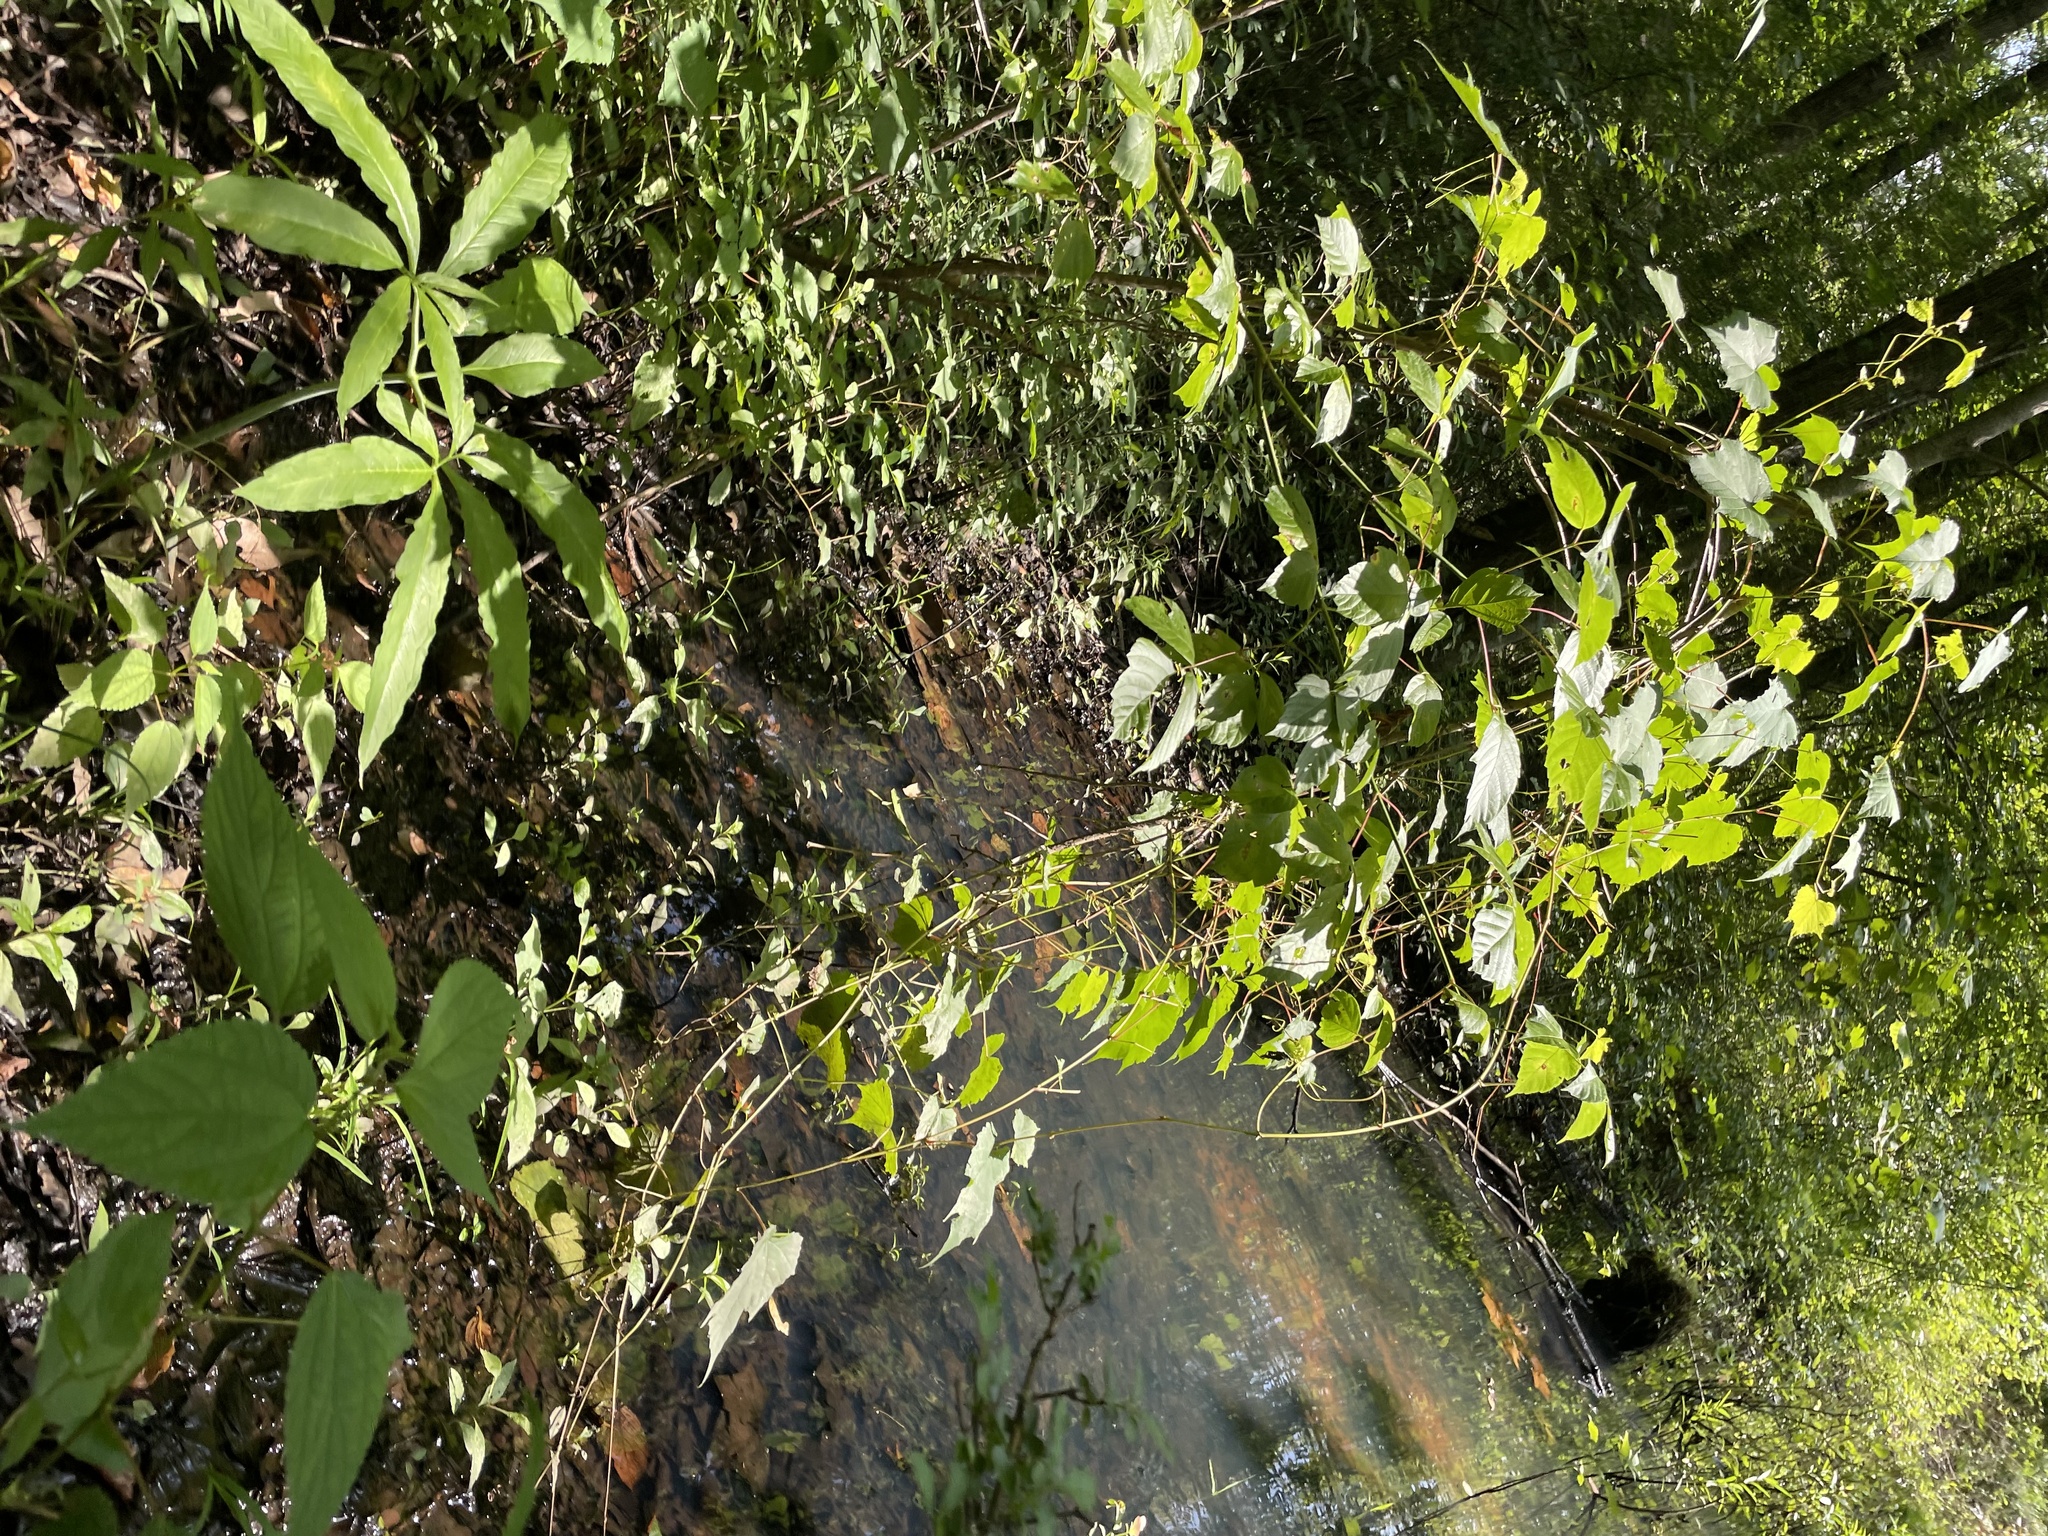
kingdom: Plantae
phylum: Tracheophyta
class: Liliopsida
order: Alismatales
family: Araceae
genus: Arisaema
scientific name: Arisaema dracontium
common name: Dragon-arum
